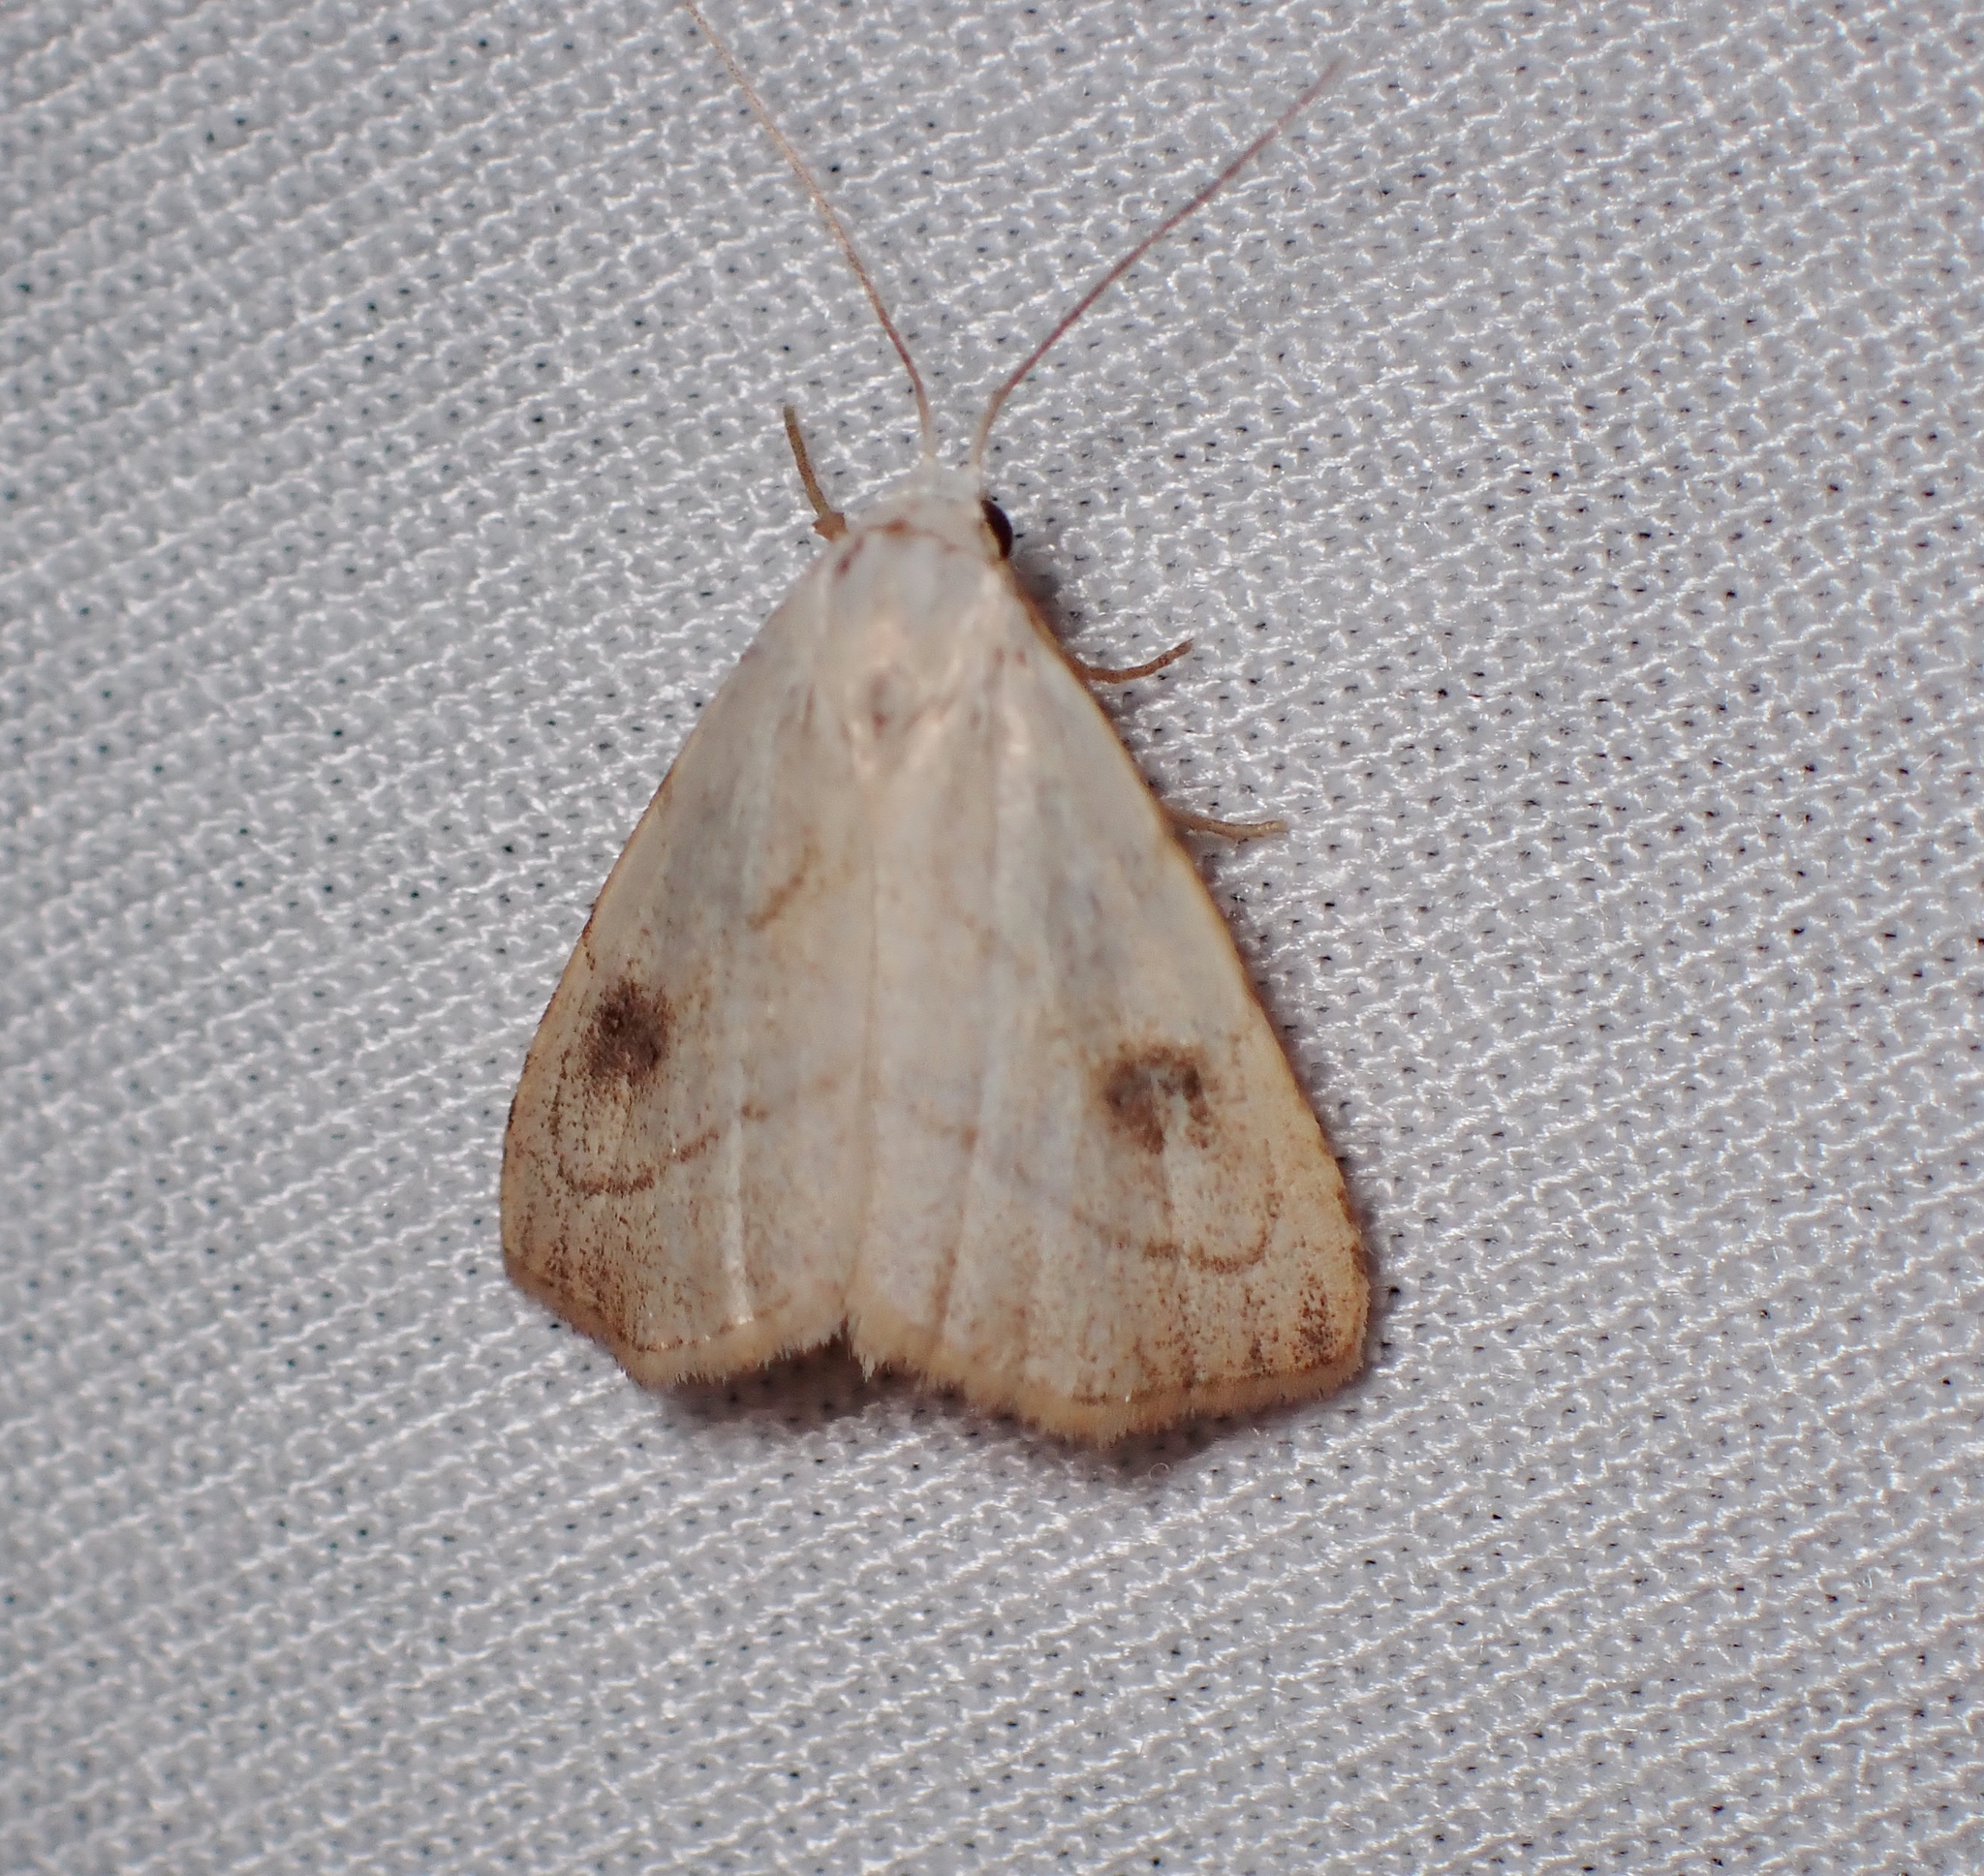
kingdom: Animalia
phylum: Arthropoda
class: Insecta
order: Lepidoptera
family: Erebidae
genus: Rivula
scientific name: Rivula propinqualis
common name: Spotted grass moth
